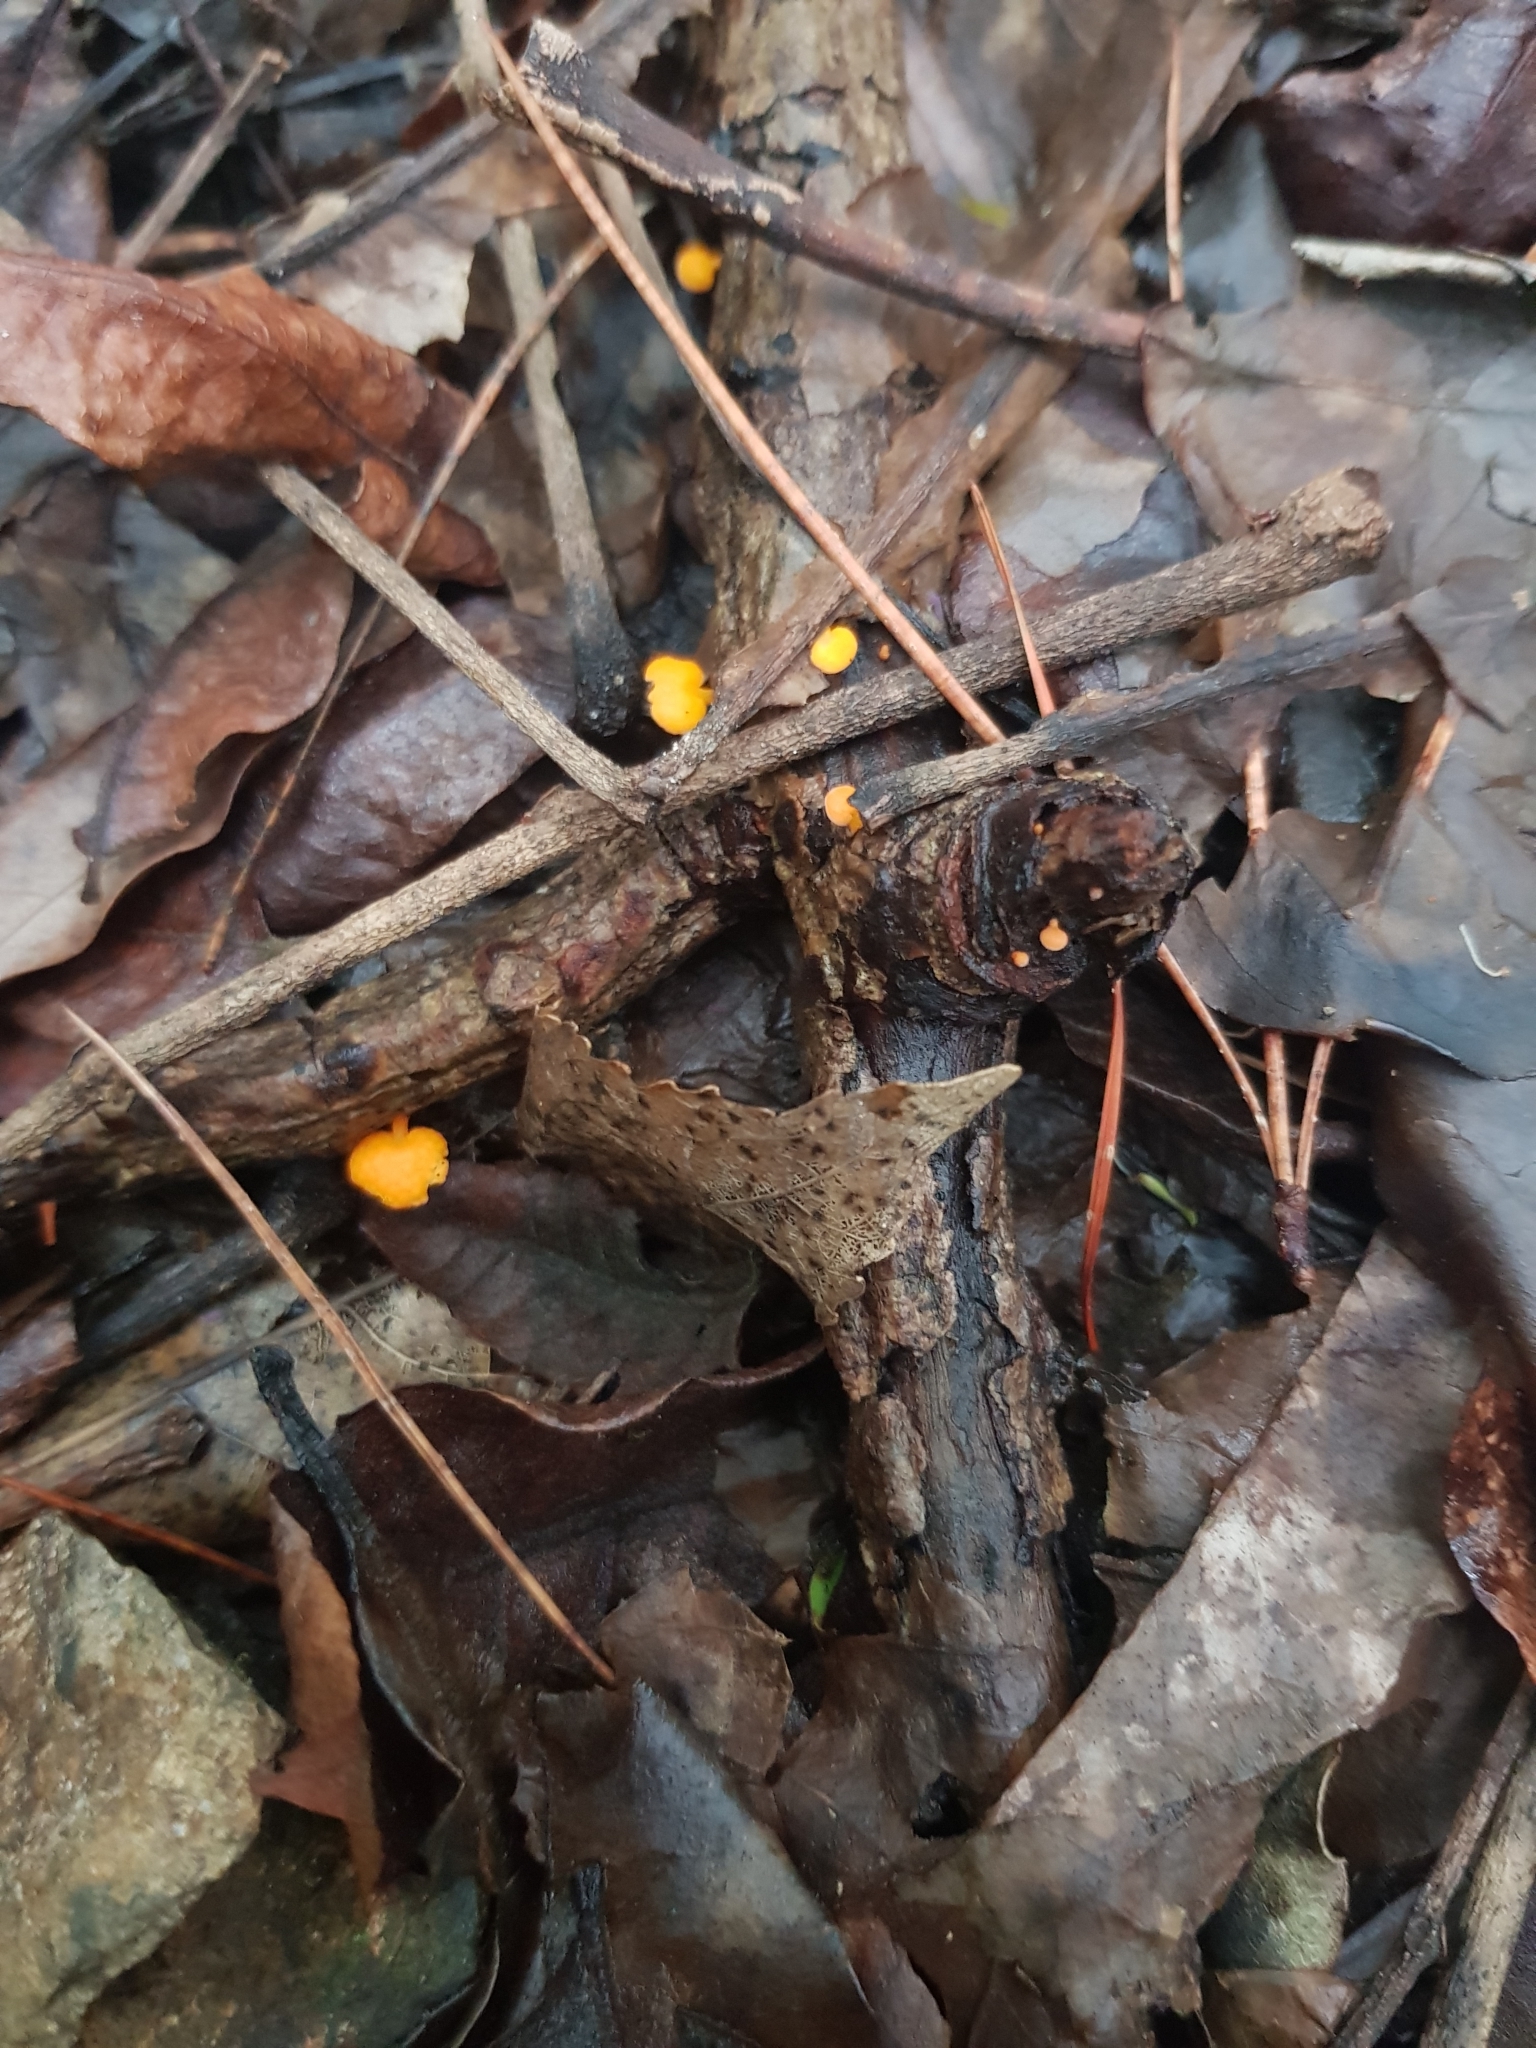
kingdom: Fungi
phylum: Basidiomycota
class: Agaricomycetes
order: Agaricales
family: Mycenaceae
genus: Favolaschia
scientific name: Favolaschia claudopus
